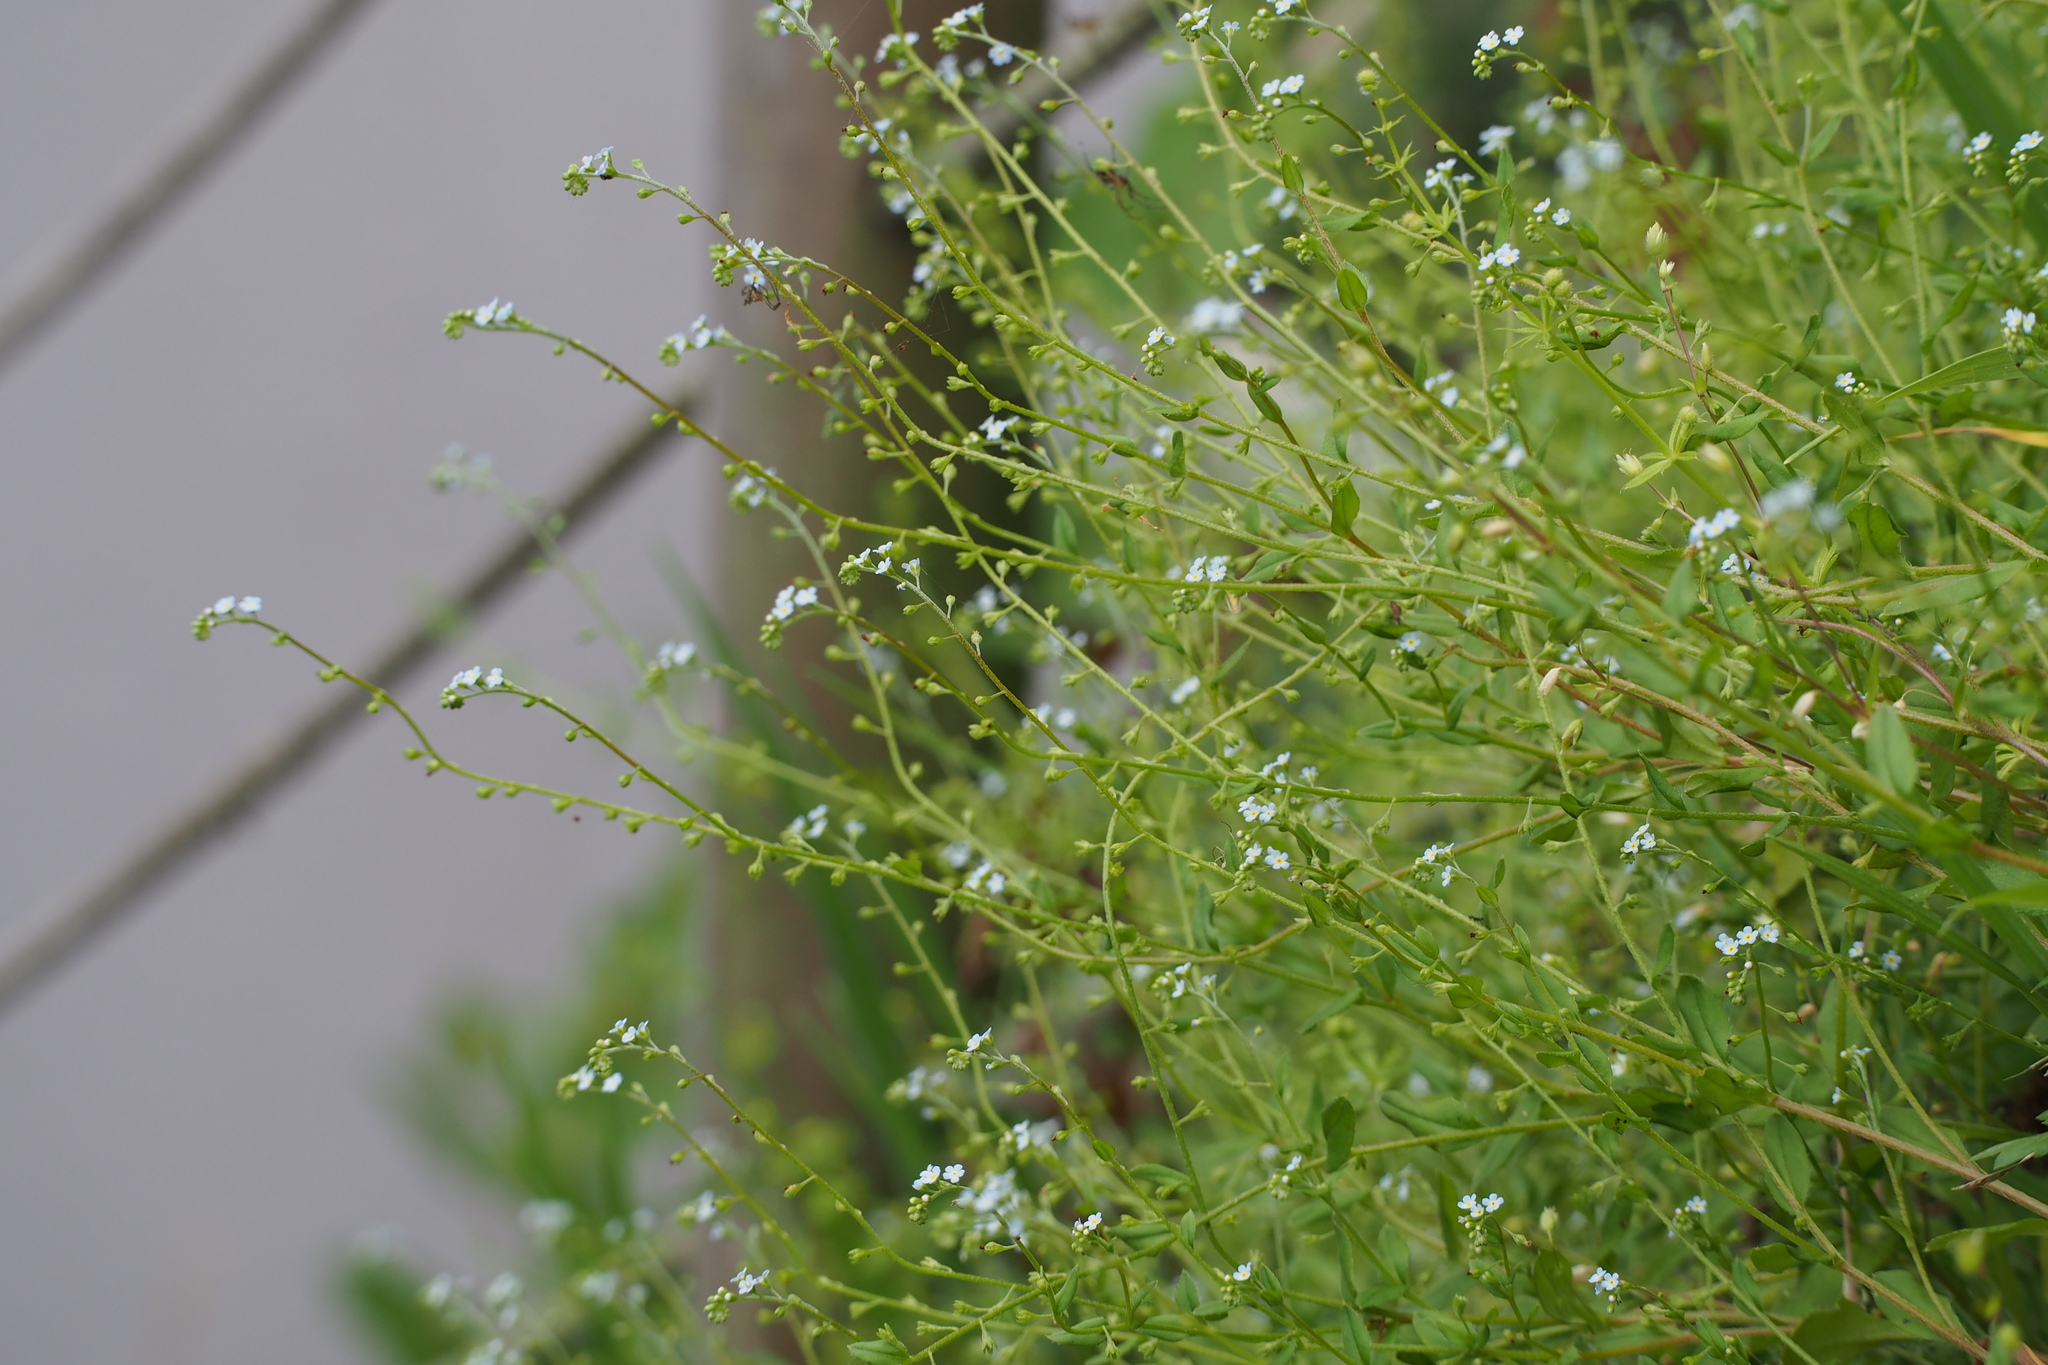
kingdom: Plantae
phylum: Tracheophyta
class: Magnoliopsida
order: Boraginales
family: Boraginaceae
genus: Trigonotis
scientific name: Trigonotis peduncularis
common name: Cucumber herb
